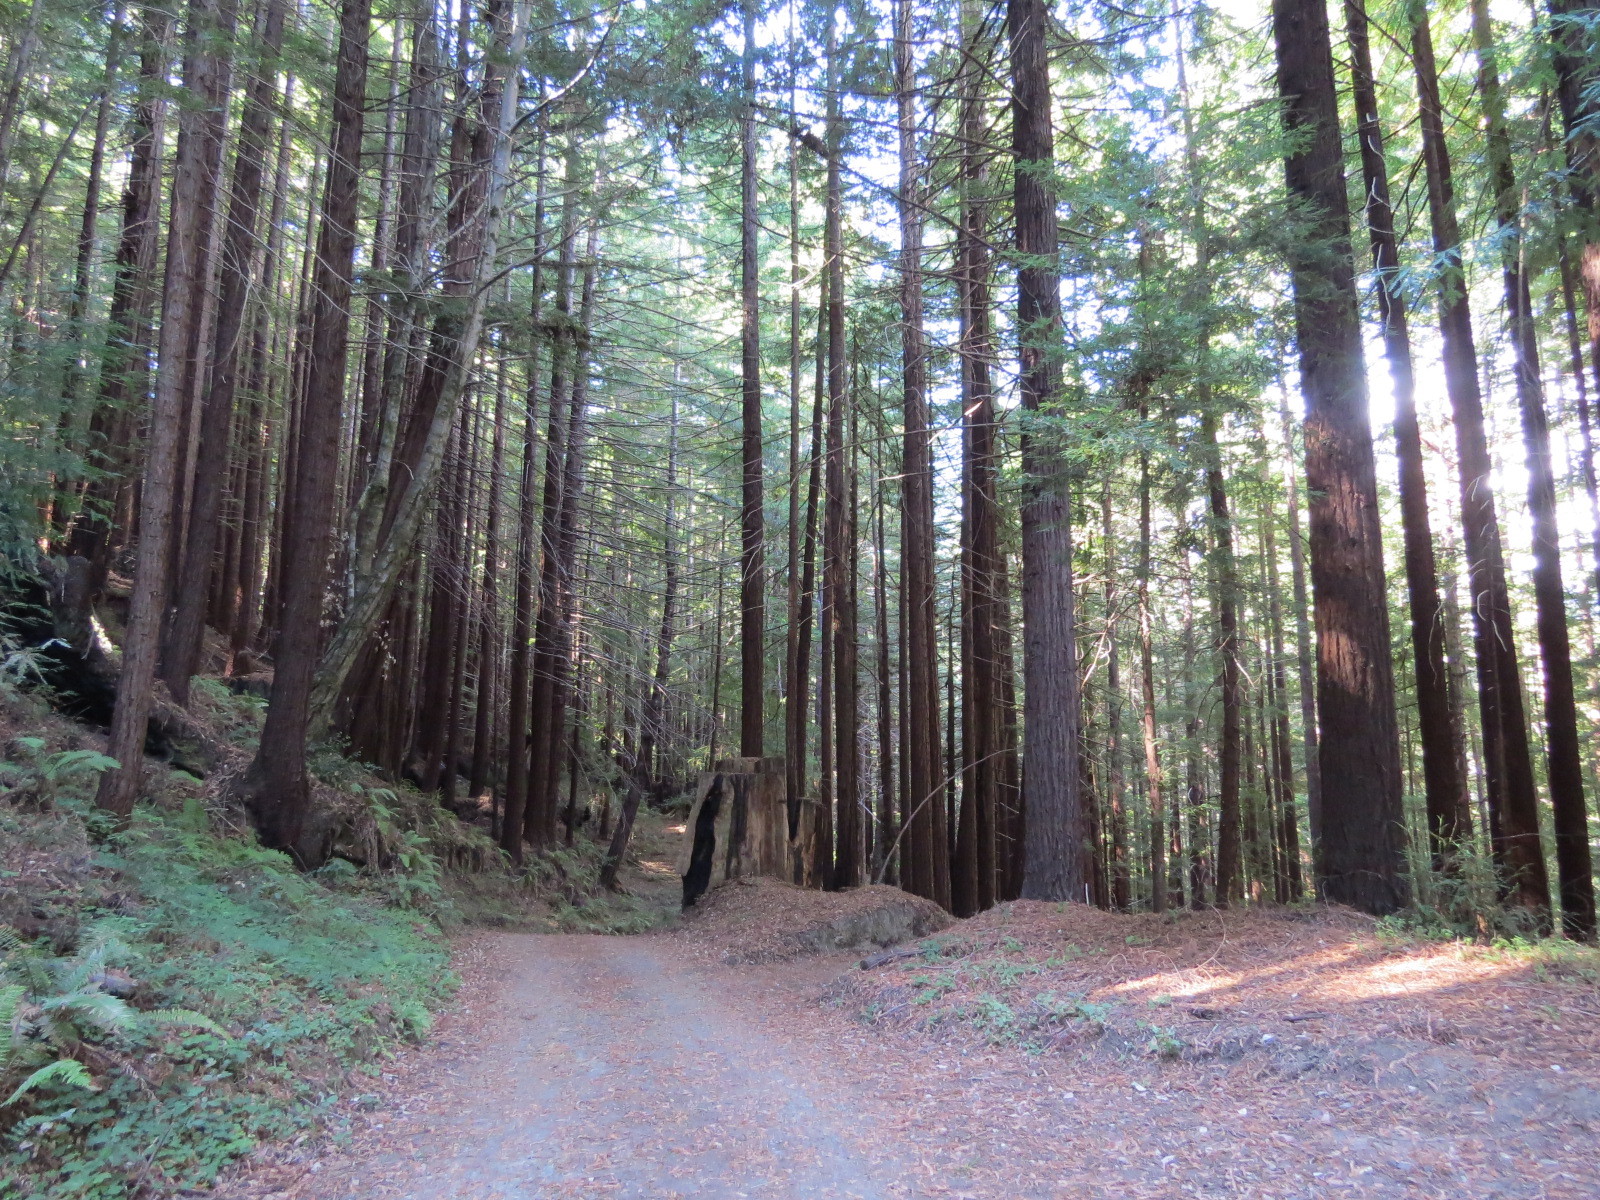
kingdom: Plantae
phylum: Tracheophyta
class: Pinopsida
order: Pinales
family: Cupressaceae
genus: Sequoia
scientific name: Sequoia sempervirens
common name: Coast redwood
